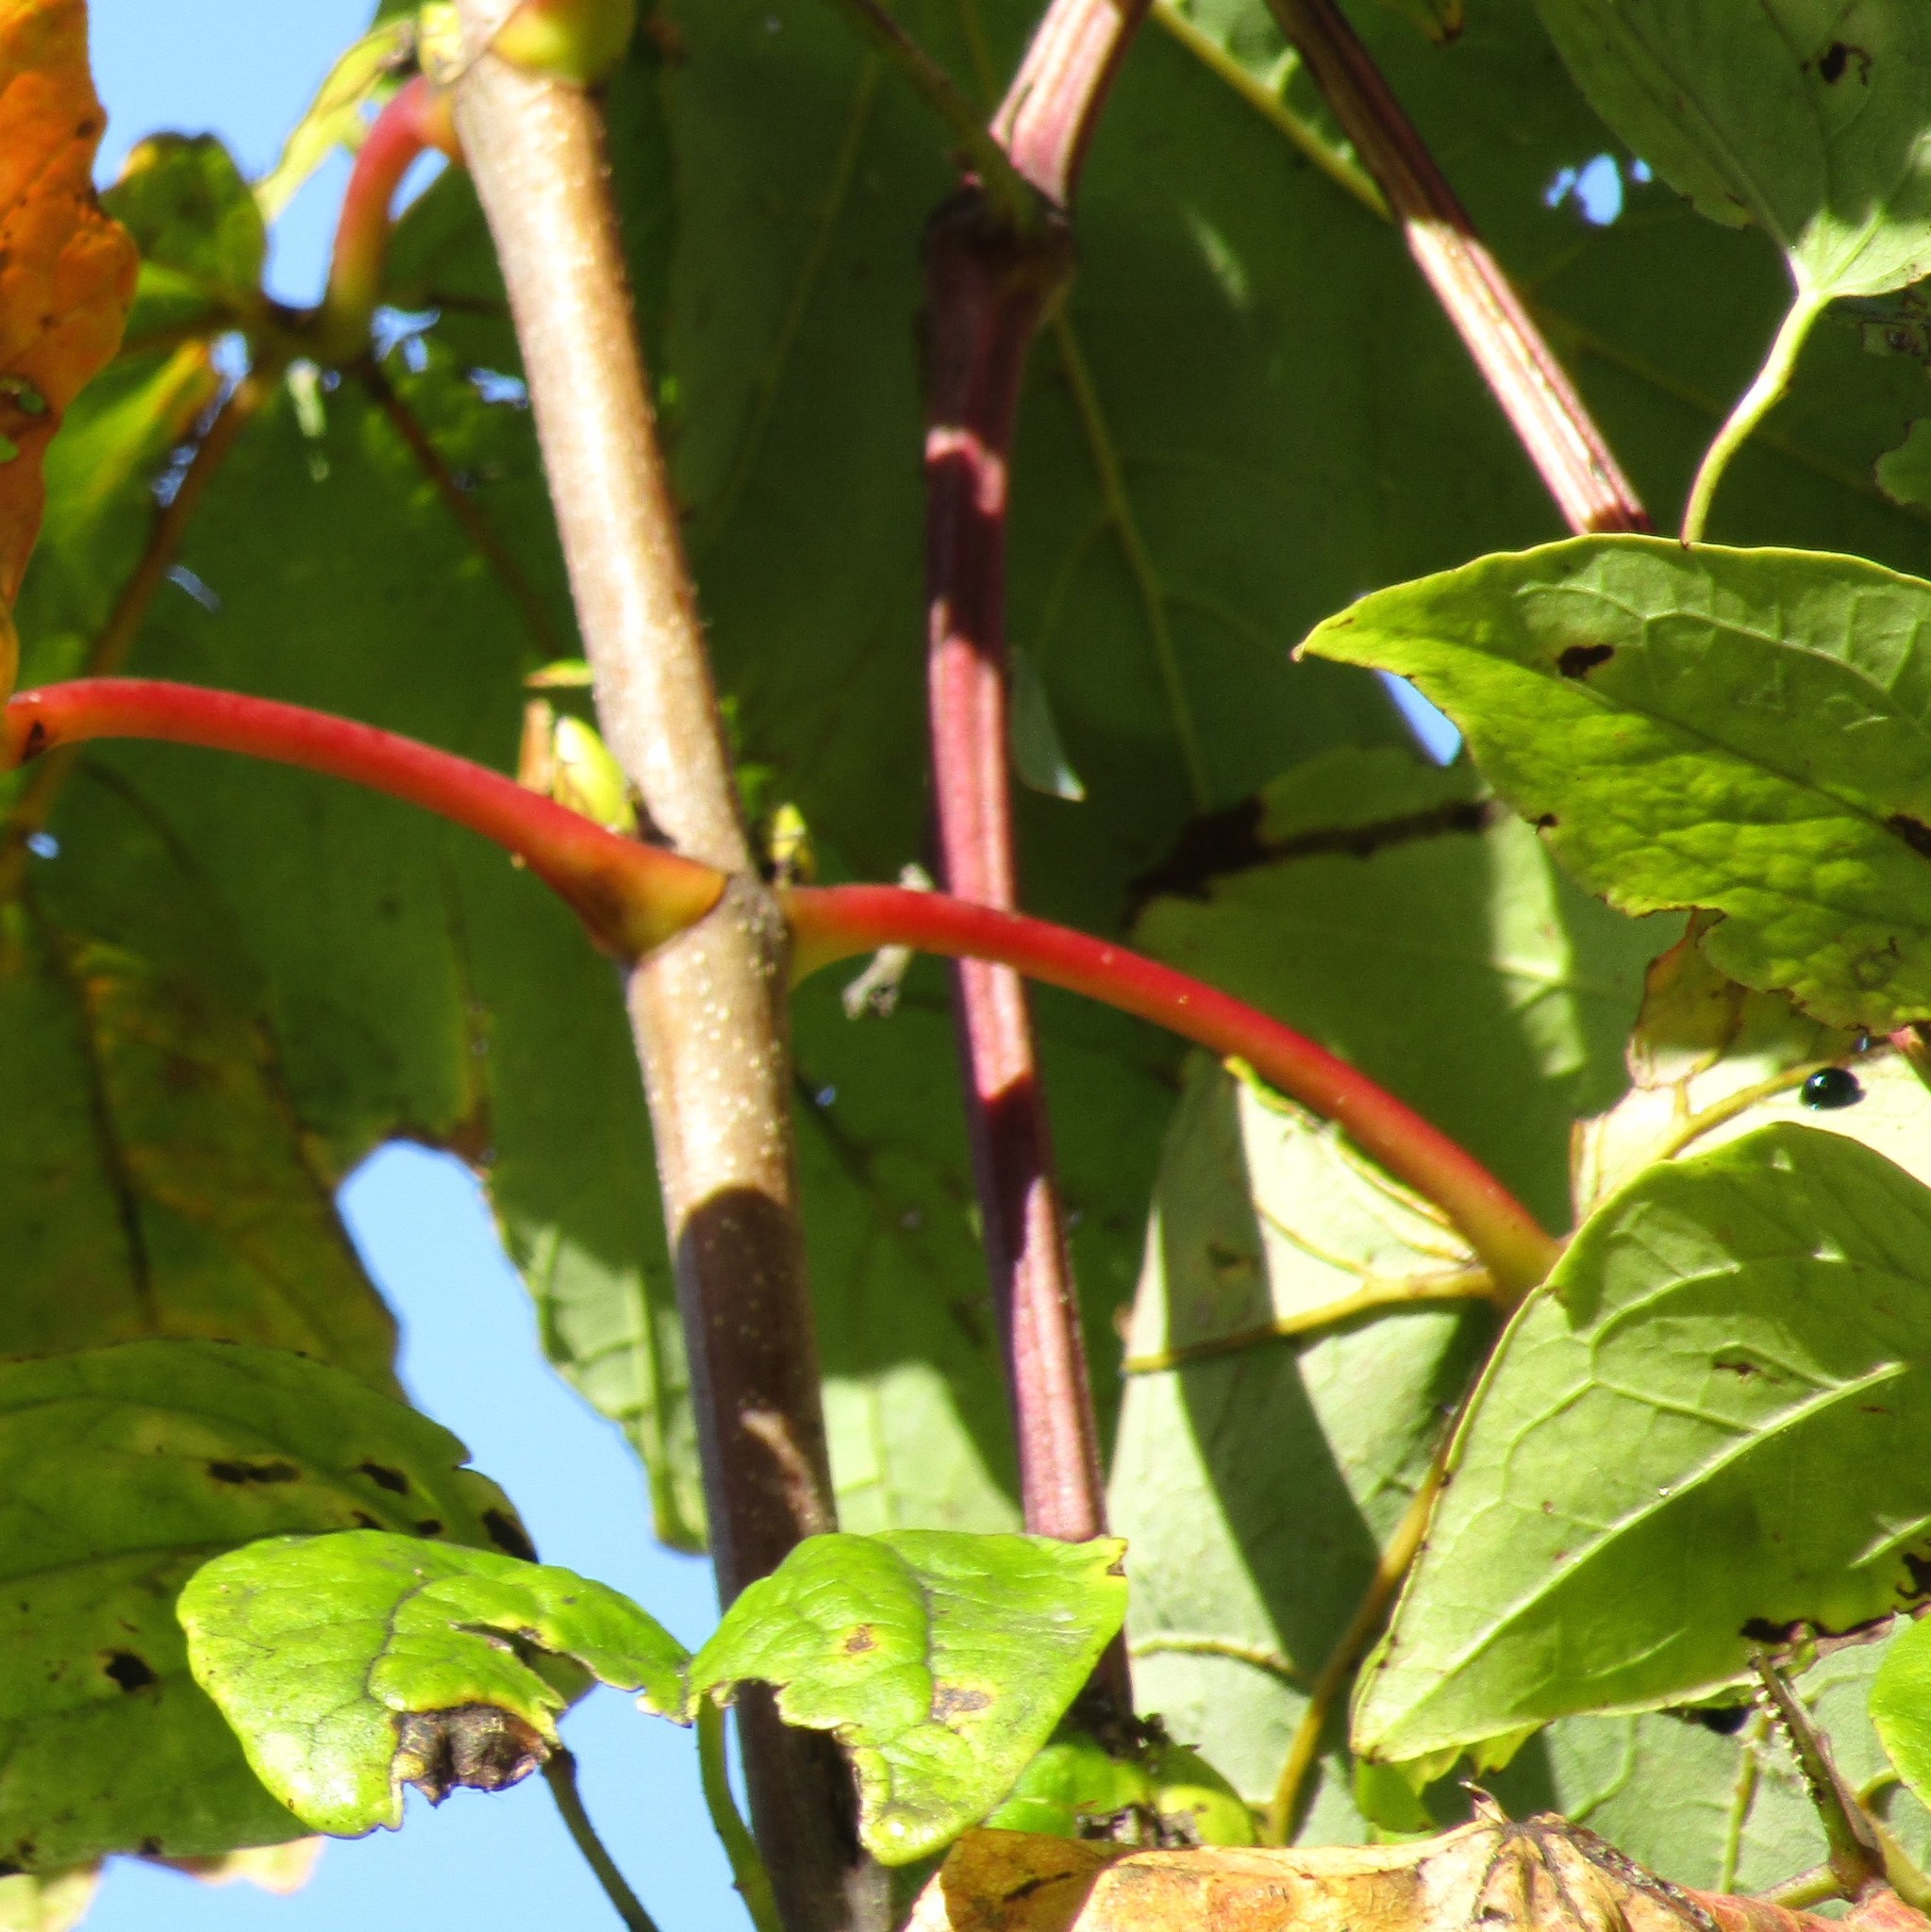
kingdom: Plantae
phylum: Tracheophyta
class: Magnoliopsida
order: Ranunculales
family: Ranunculaceae
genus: Clematis
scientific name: Clematis vitalba
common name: Evergreen clematis
